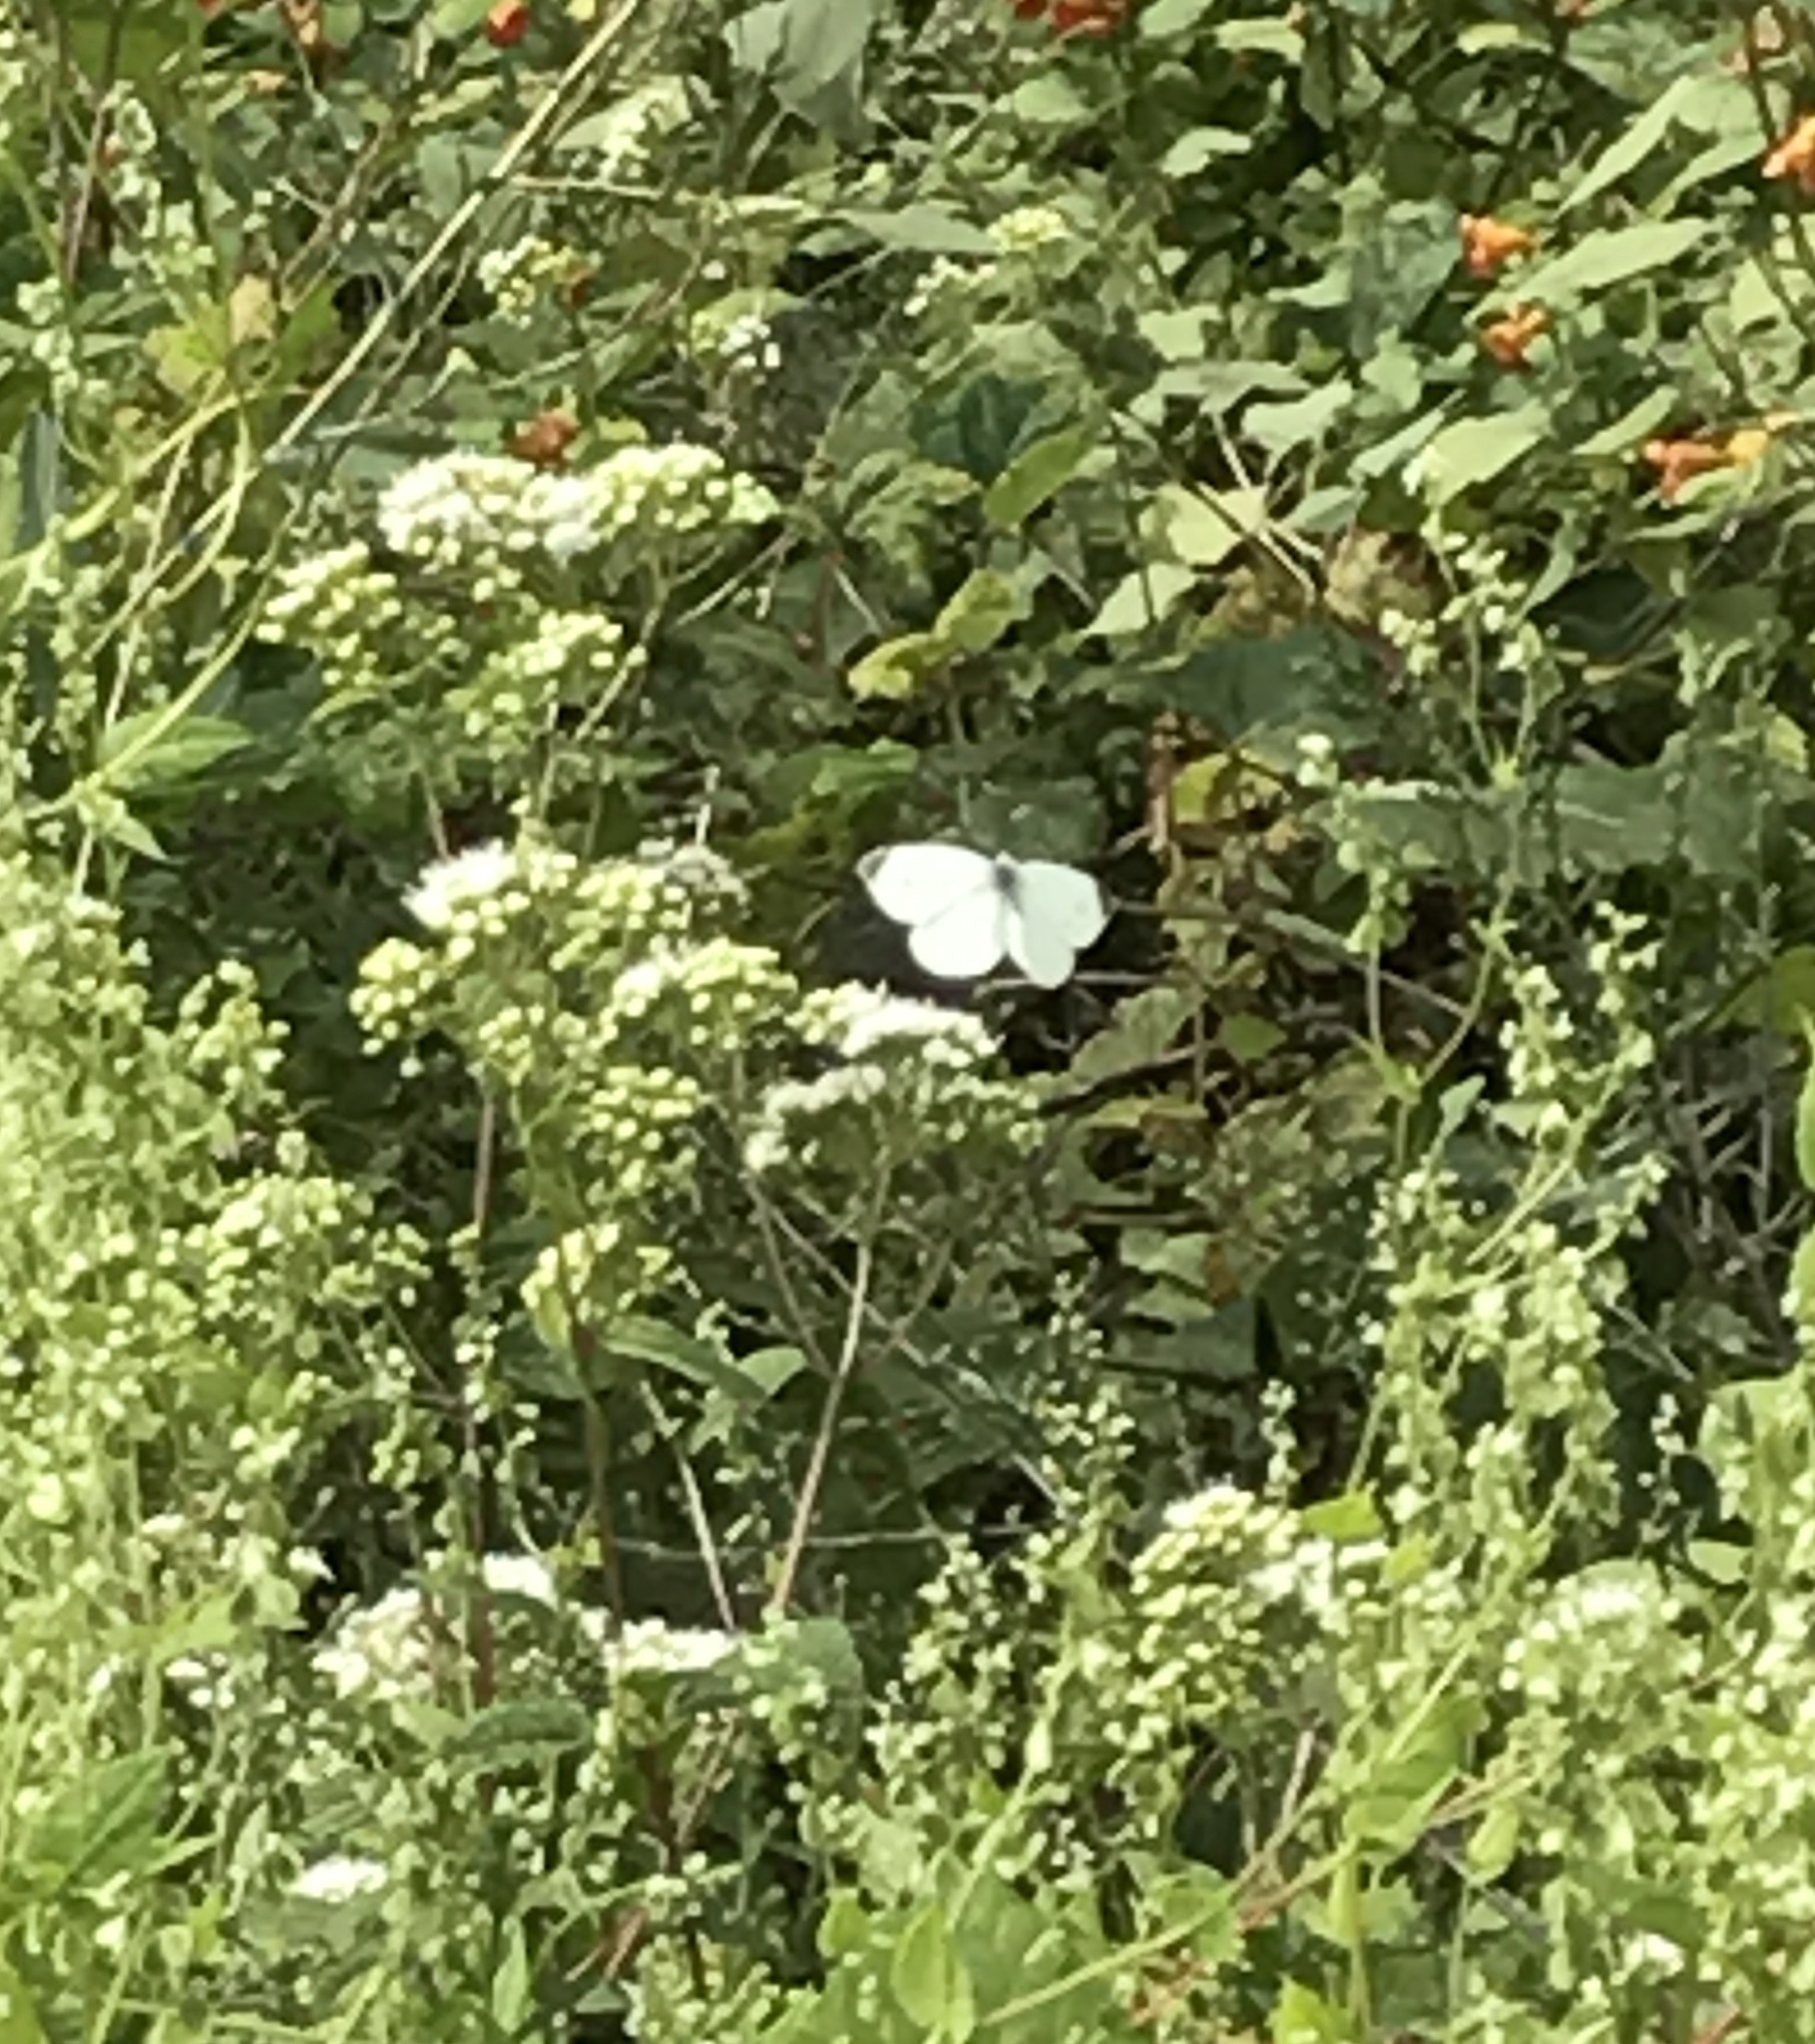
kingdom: Animalia
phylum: Arthropoda
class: Insecta
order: Lepidoptera
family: Pieridae
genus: Pieris
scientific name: Pieris rapae
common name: Small white
